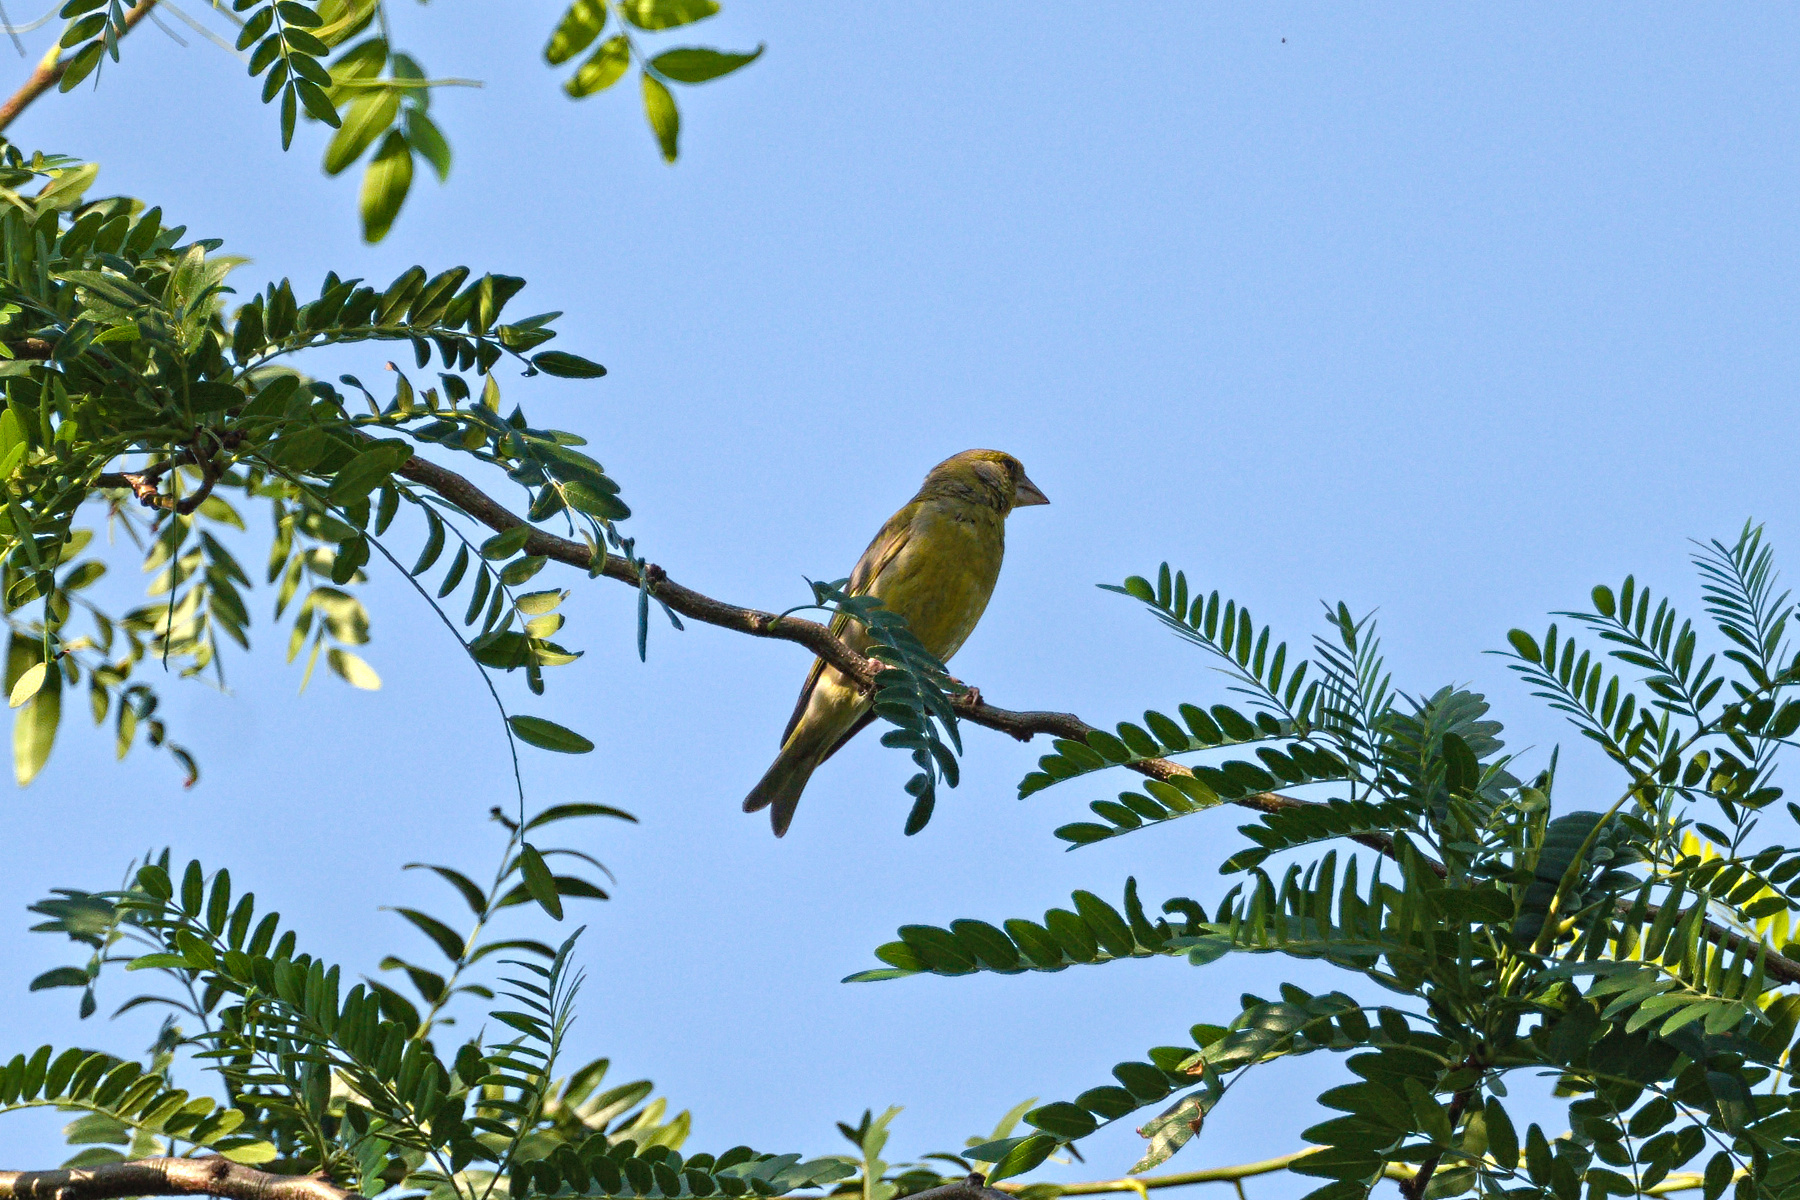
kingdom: Plantae
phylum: Tracheophyta
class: Liliopsida
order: Poales
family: Poaceae
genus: Chloris
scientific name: Chloris chloris
